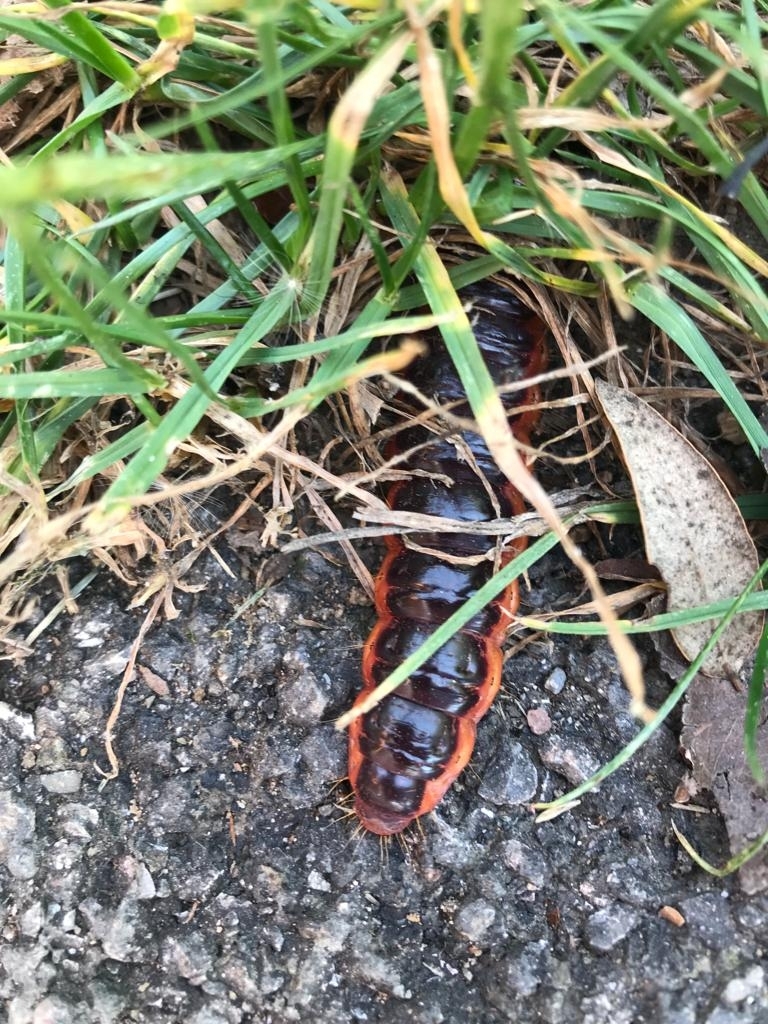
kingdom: Animalia
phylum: Arthropoda
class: Insecta
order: Lepidoptera
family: Cossidae
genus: Cossus
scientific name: Cossus cossus
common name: Goat moth
